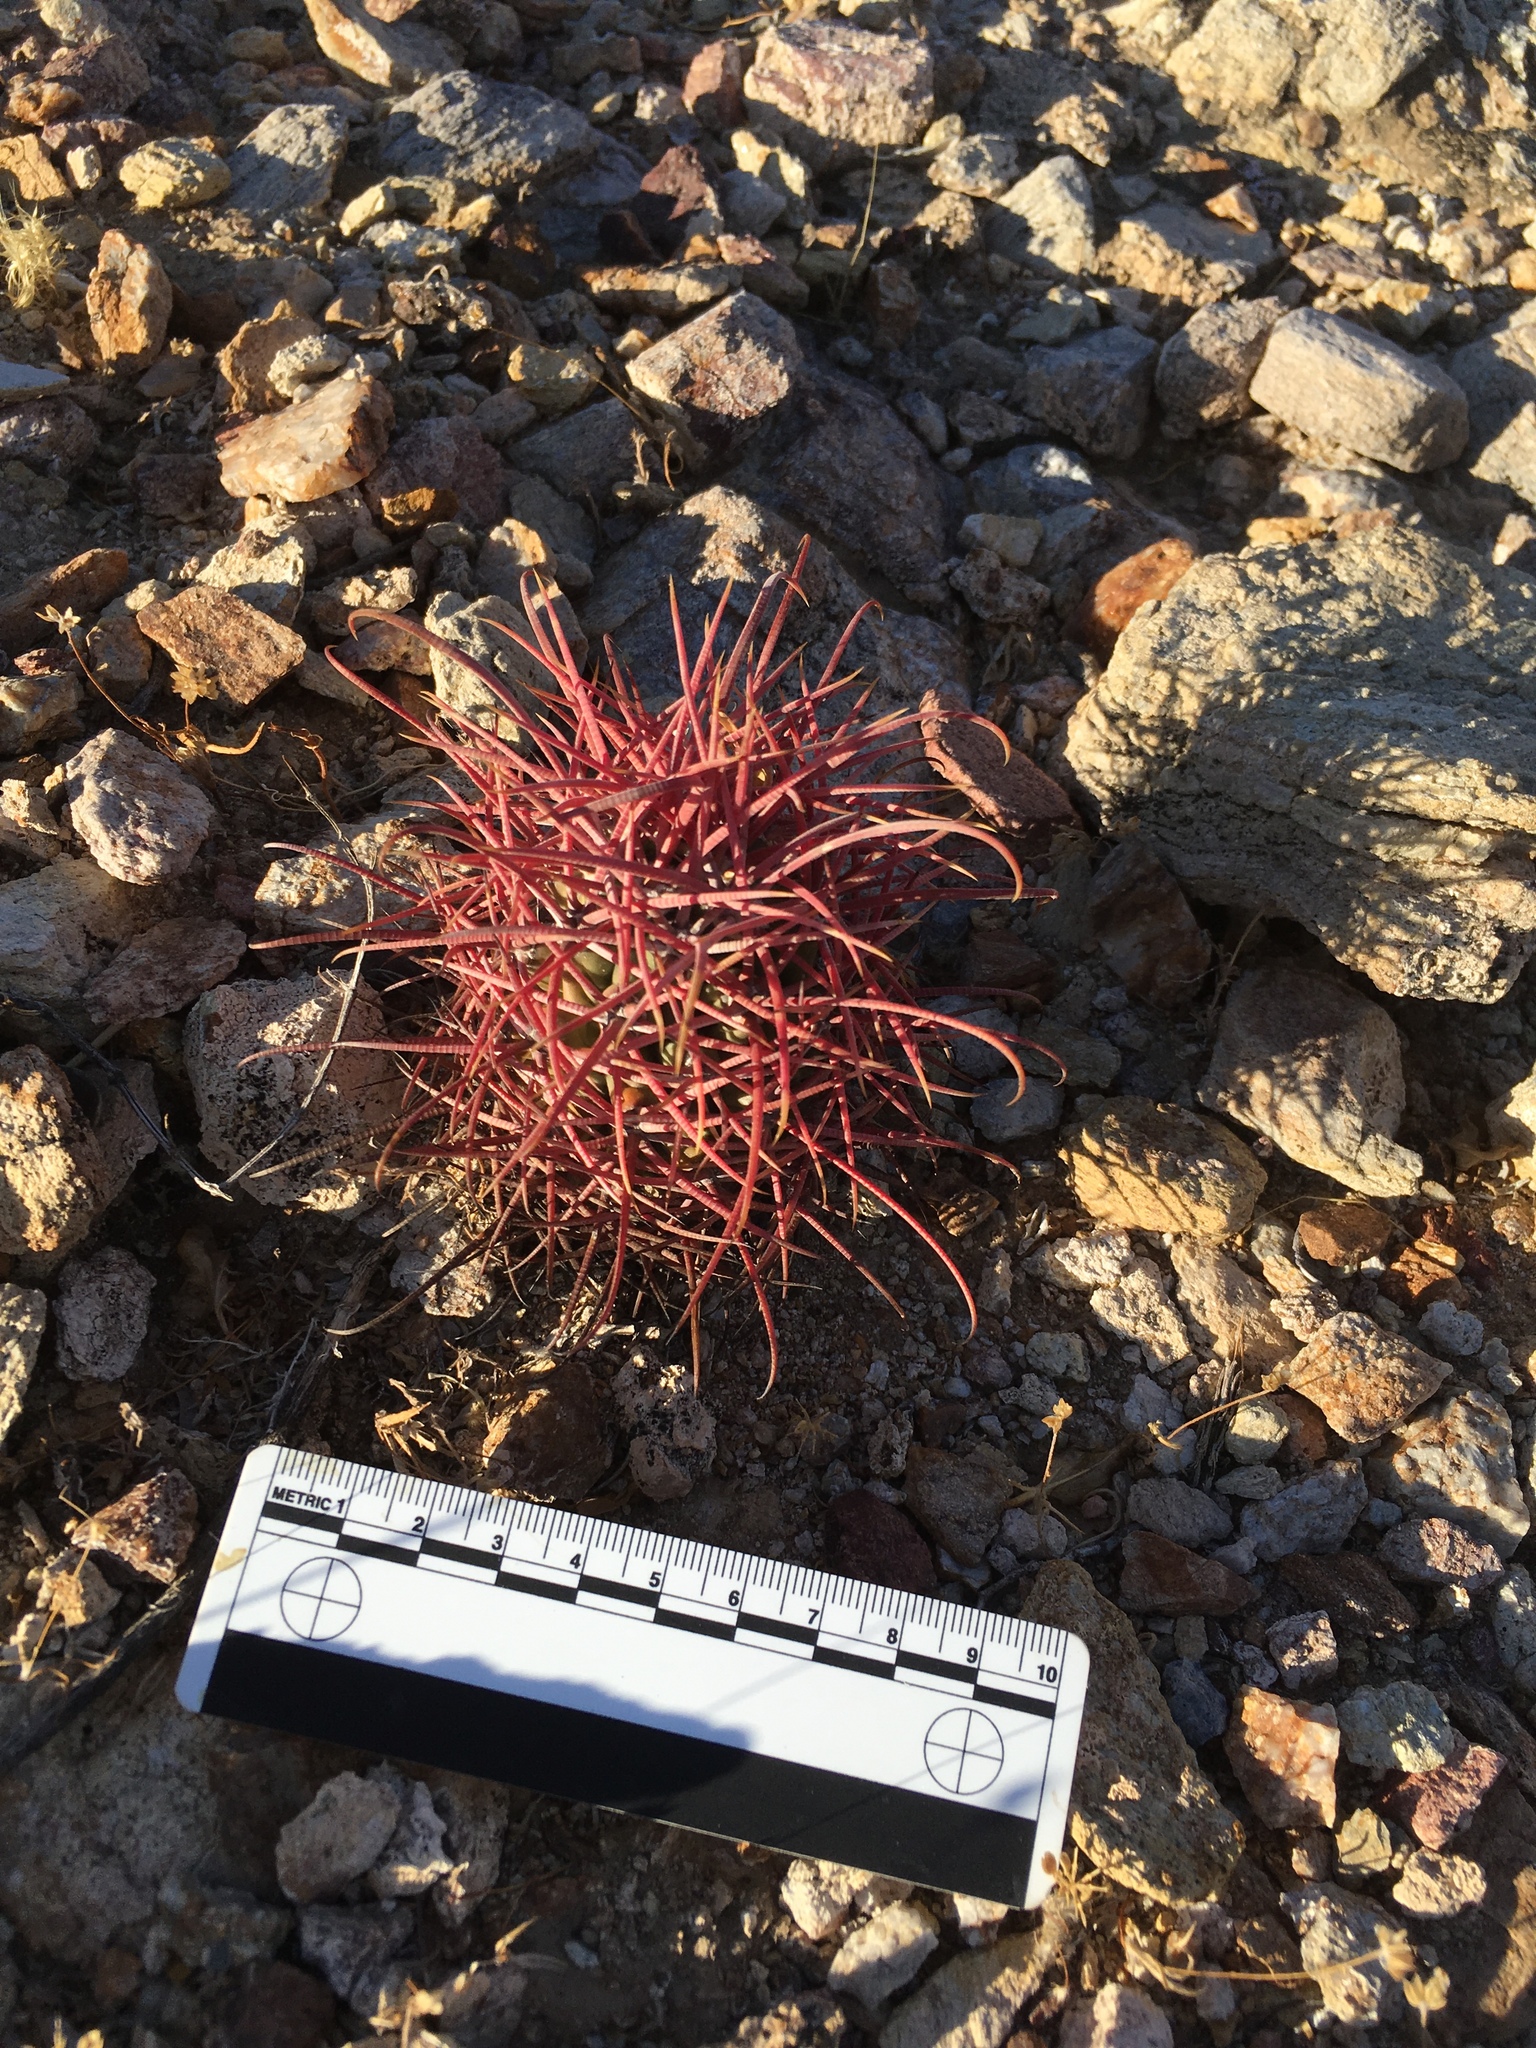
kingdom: Plantae
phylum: Tracheophyta
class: Magnoliopsida
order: Caryophyllales
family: Cactaceae
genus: Ferocactus
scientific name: Ferocactus cylindraceus
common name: California barrel cactus
